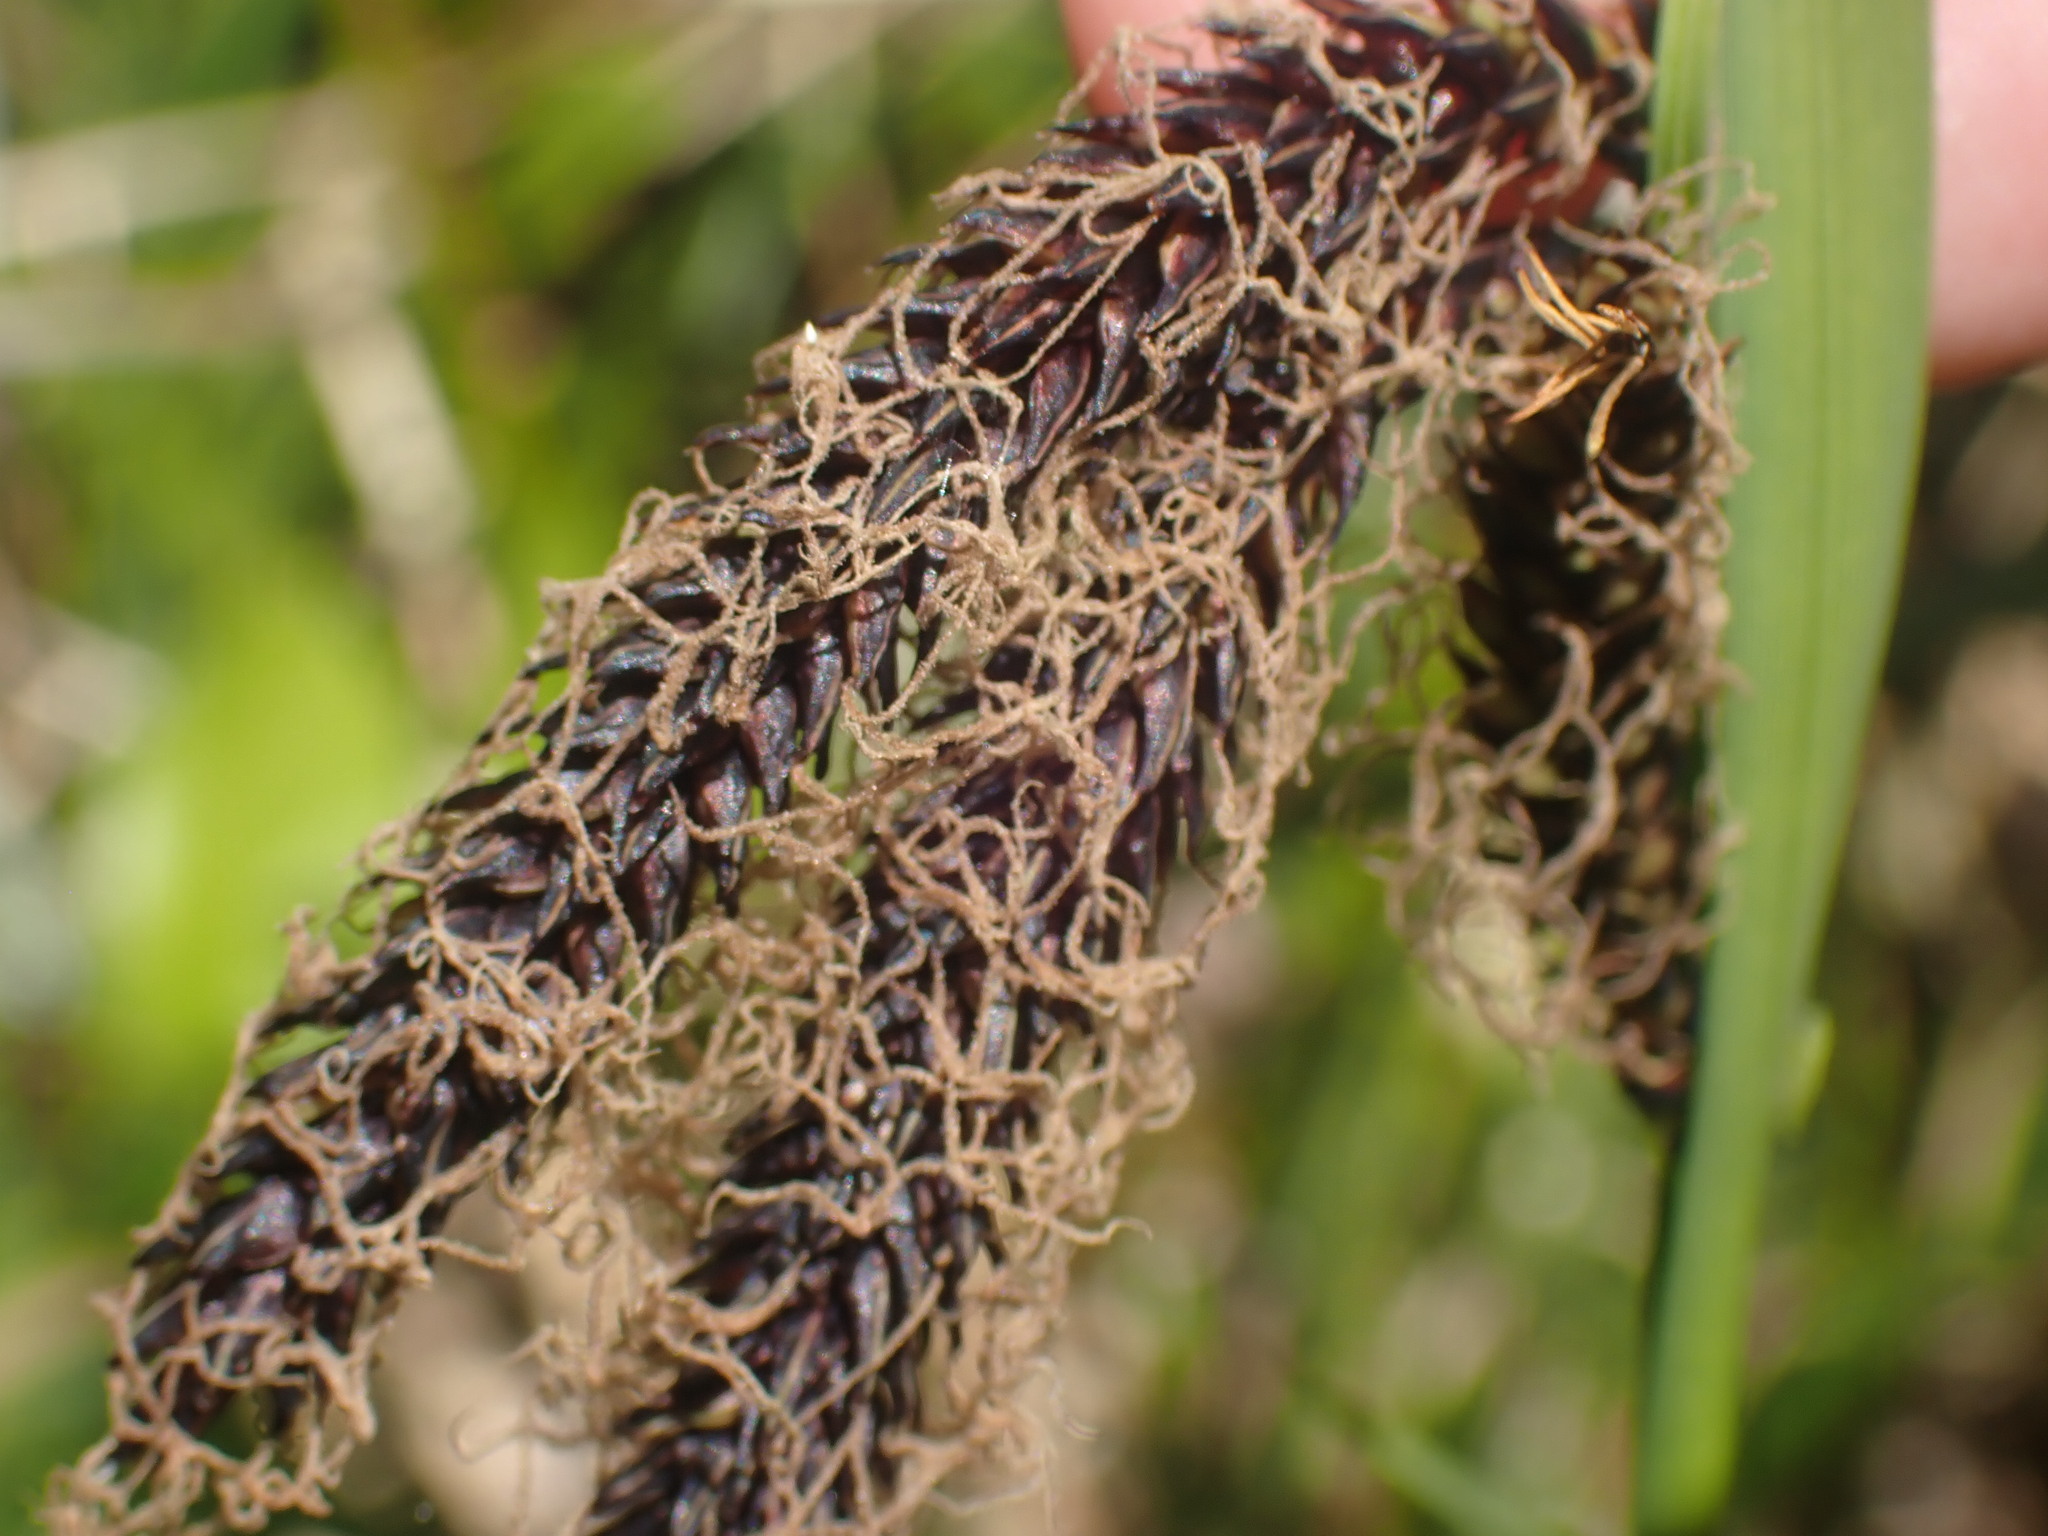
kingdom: Plantae
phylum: Tracheophyta
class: Liliopsida
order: Poales
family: Cyperaceae
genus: Carex
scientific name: Carex obnupta
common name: Slough sedge
